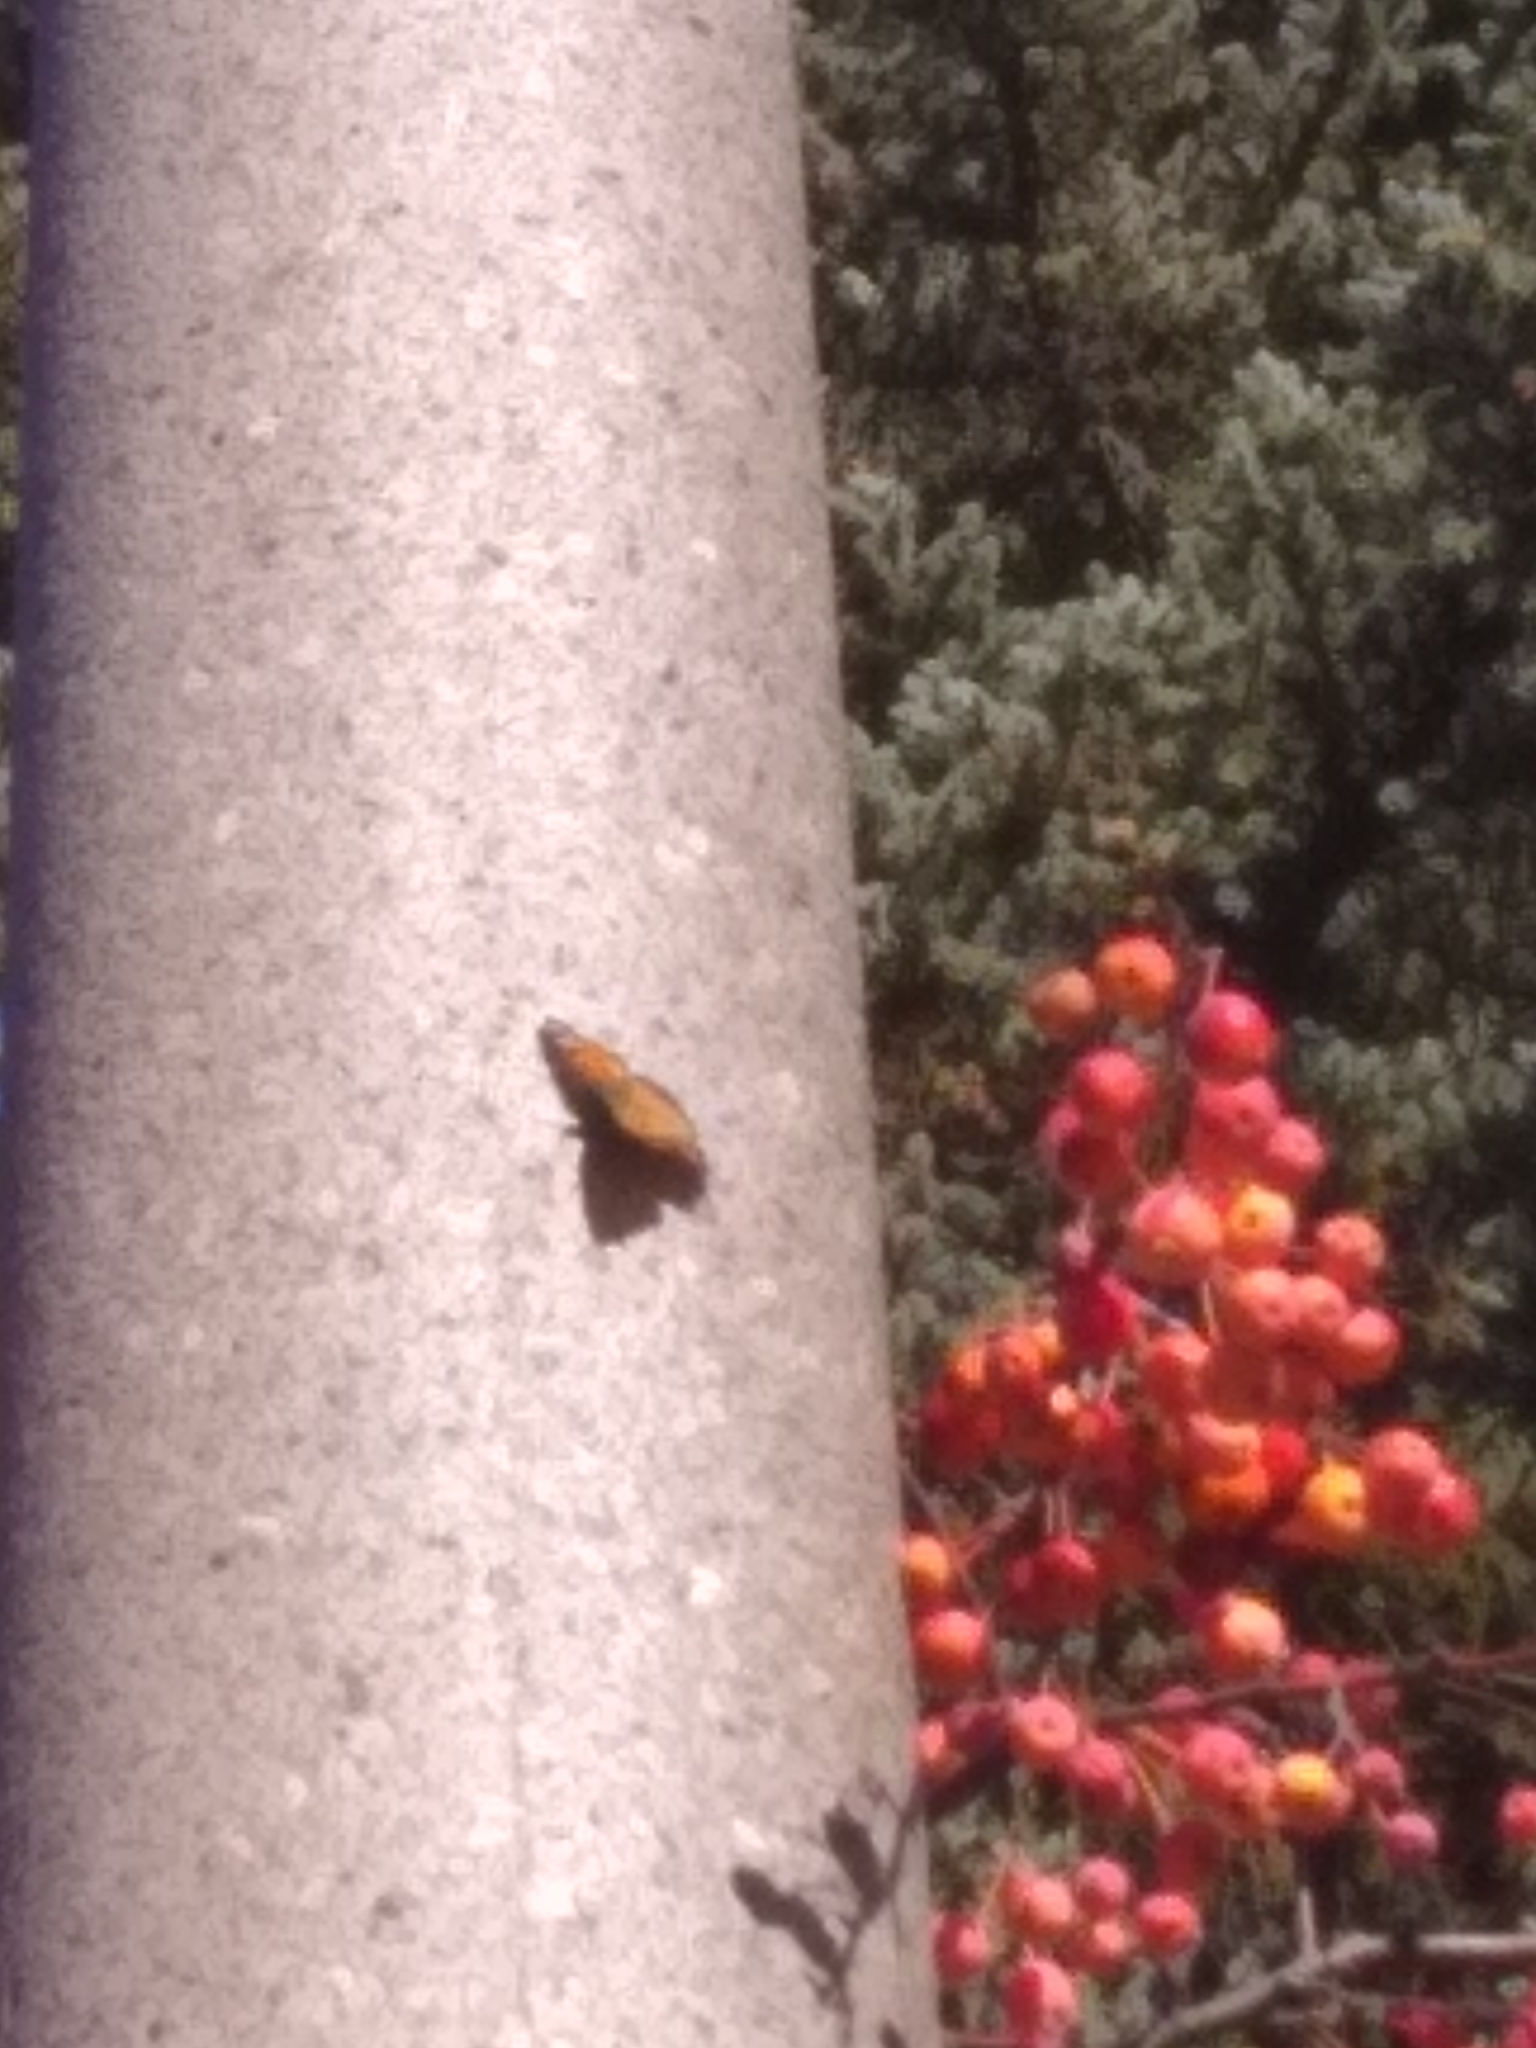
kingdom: Animalia
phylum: Arthropoda
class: Insecta
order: Lepidoptera
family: Nymphalidae
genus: Nymphalis
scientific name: Nymphalis californica
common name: California tortoiseshell
